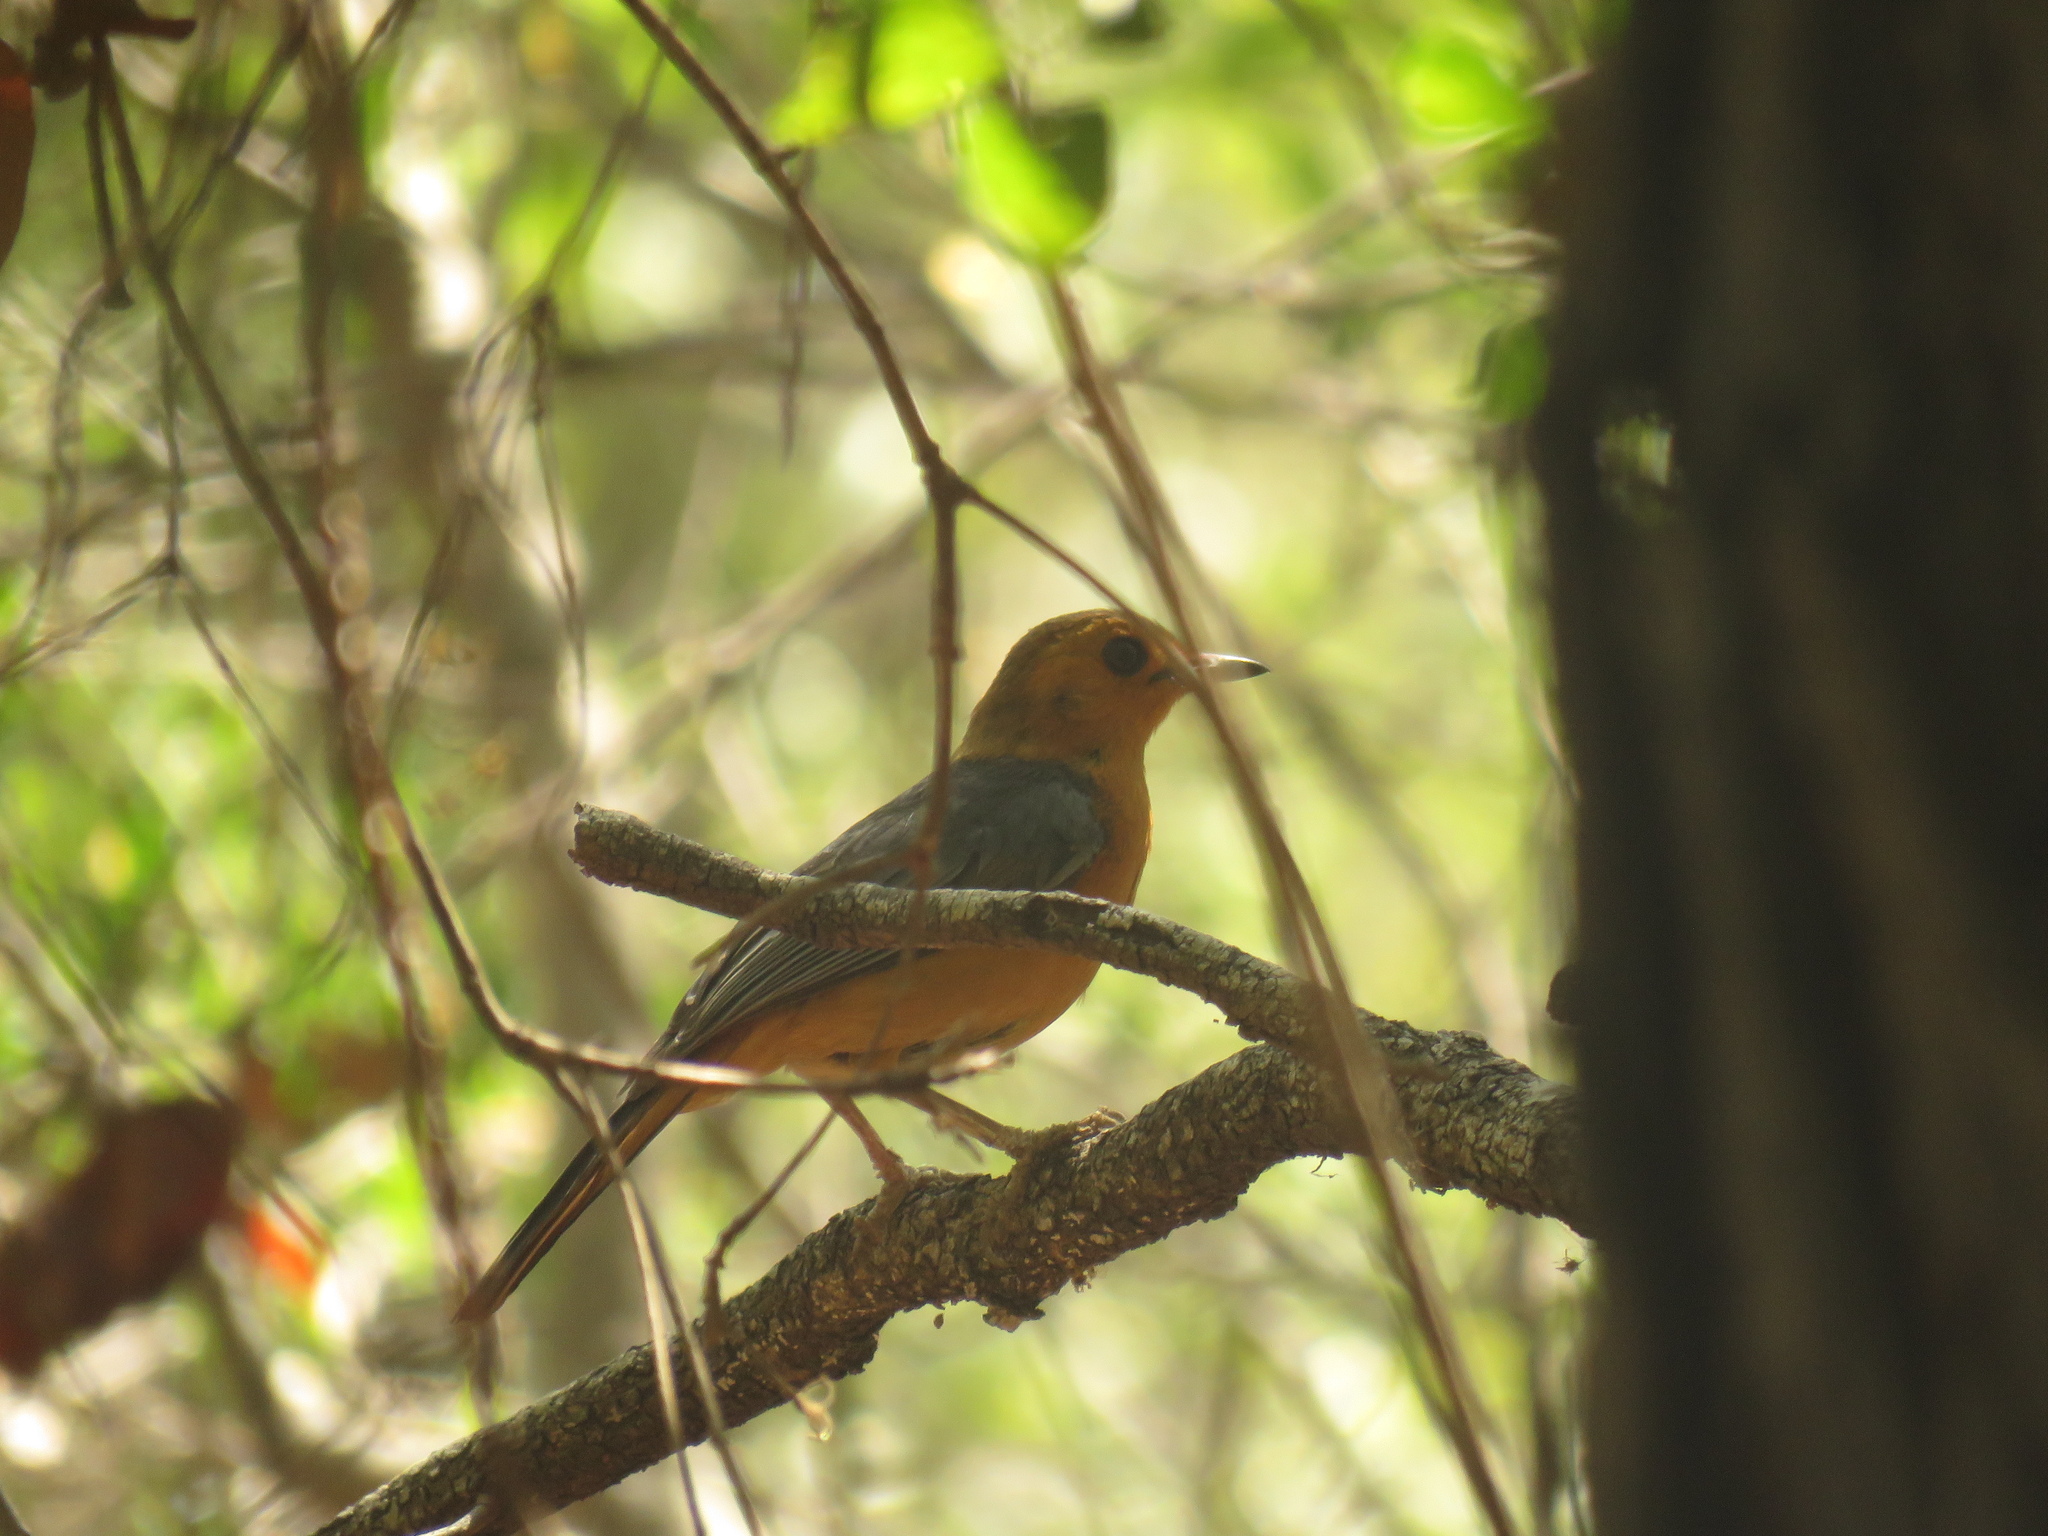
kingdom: Animalia
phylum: Chordata
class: Aves
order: Passeriformes
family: Muscicapidae
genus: Cossypha
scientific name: Cossypha natalensis
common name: Red-capped robin-chat
